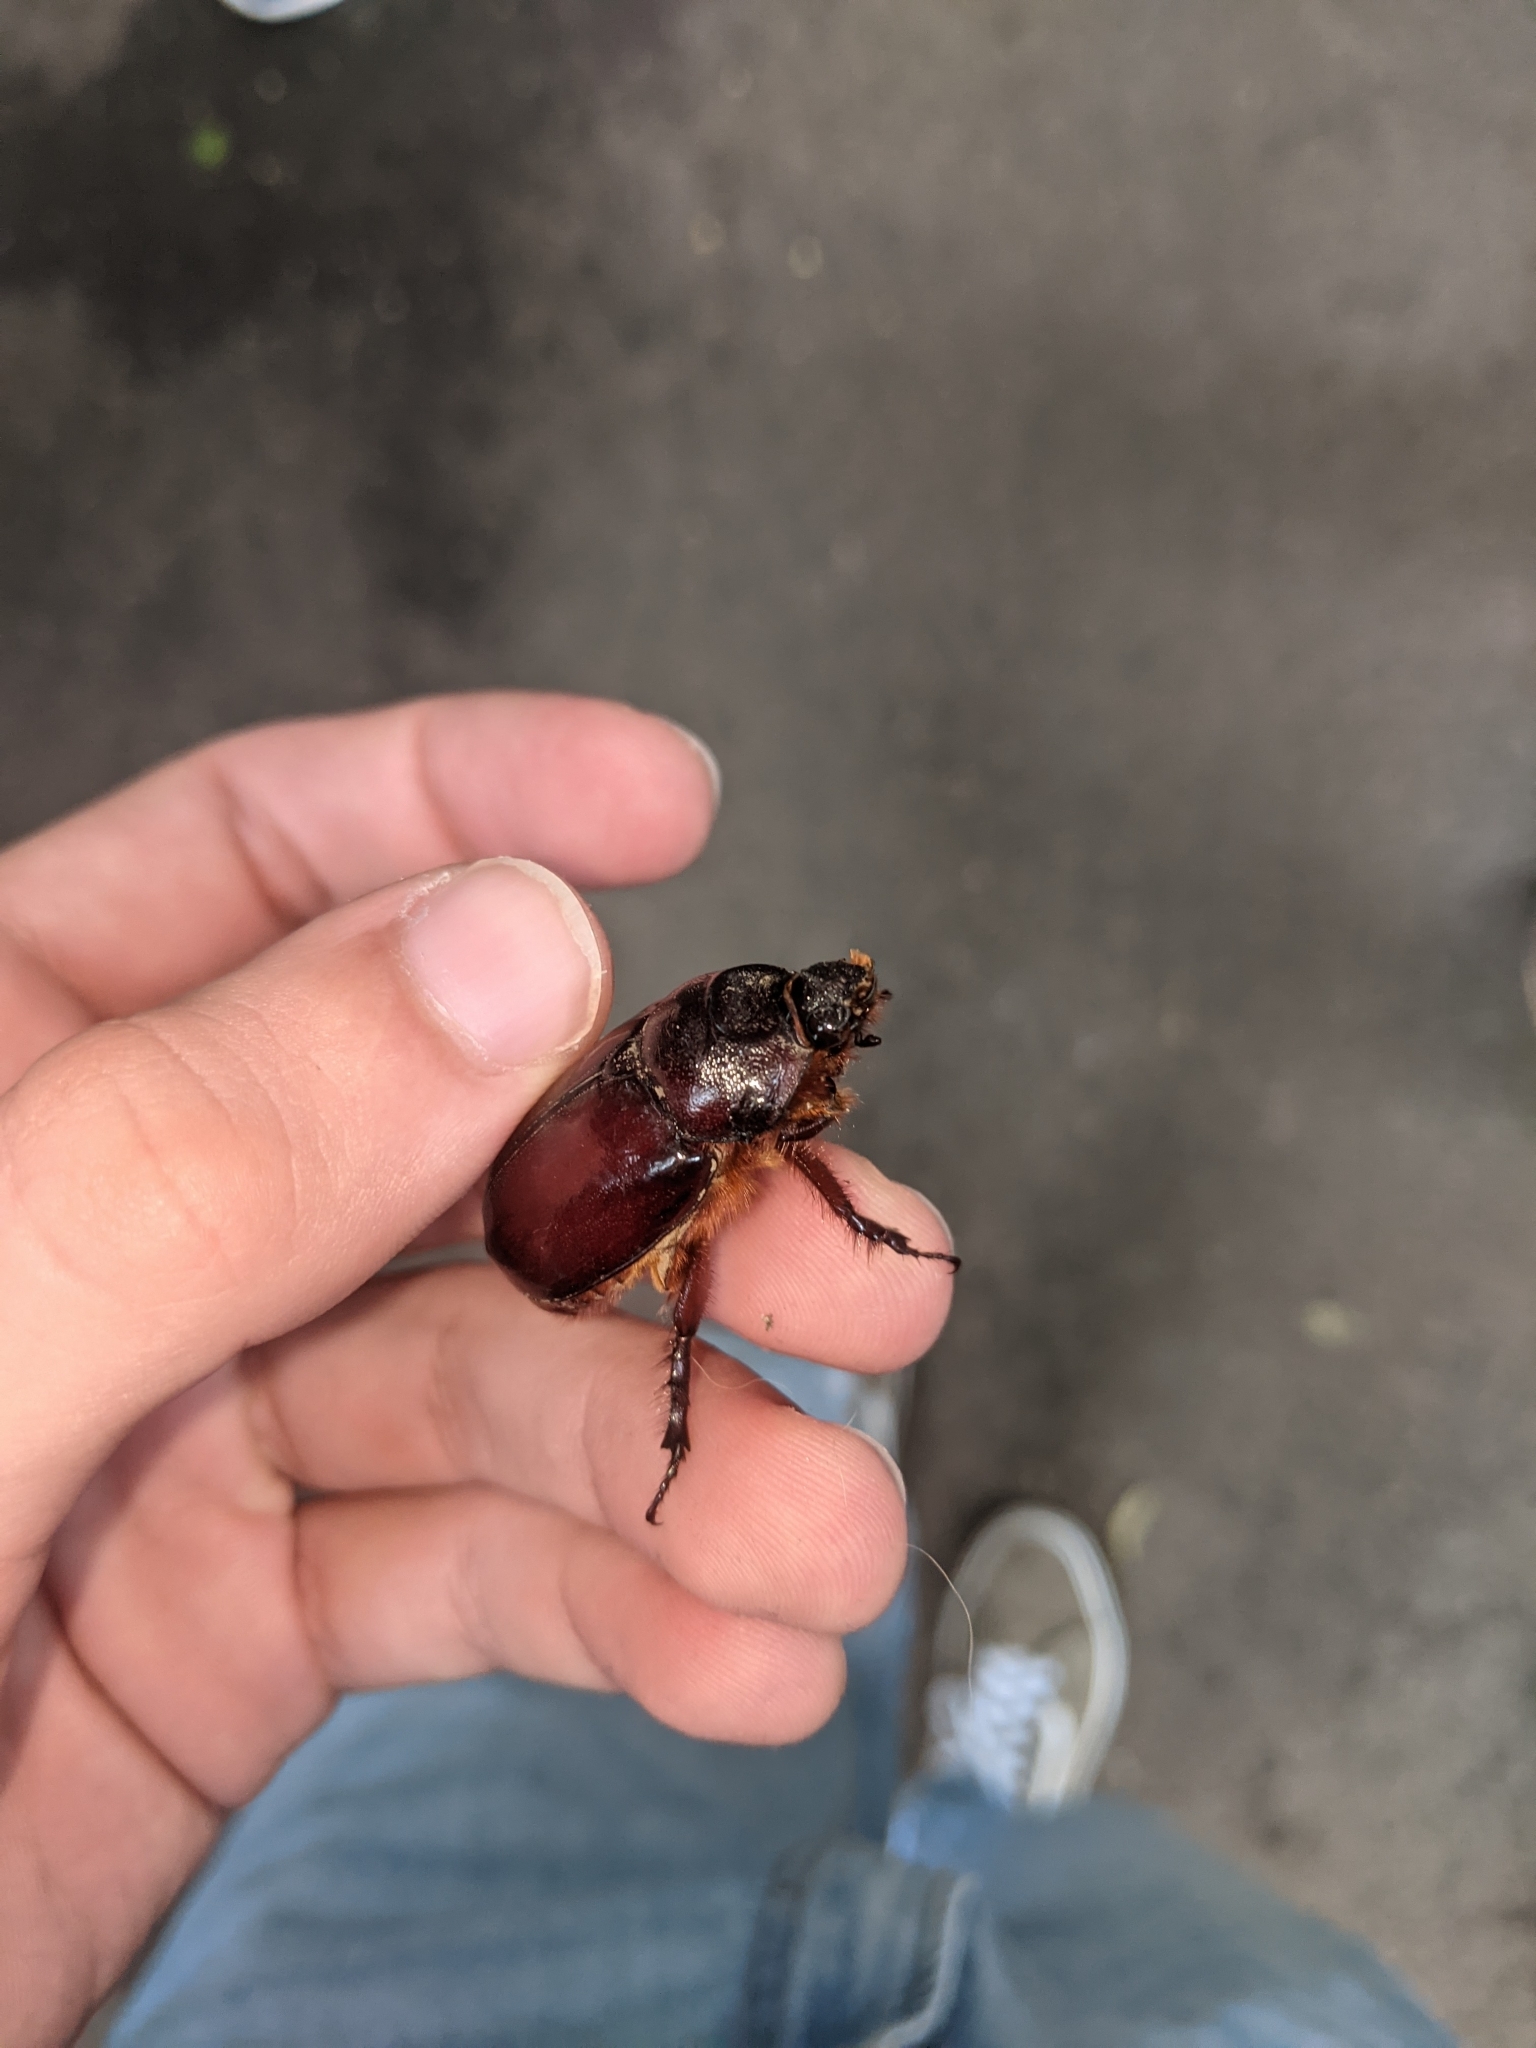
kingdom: Animalia
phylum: Arthropoda
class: Insecta
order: Coleoptera
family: Scarabaeidae
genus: Oryctes
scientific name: Oryctes nasicornis
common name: European rhinoceros beetle
